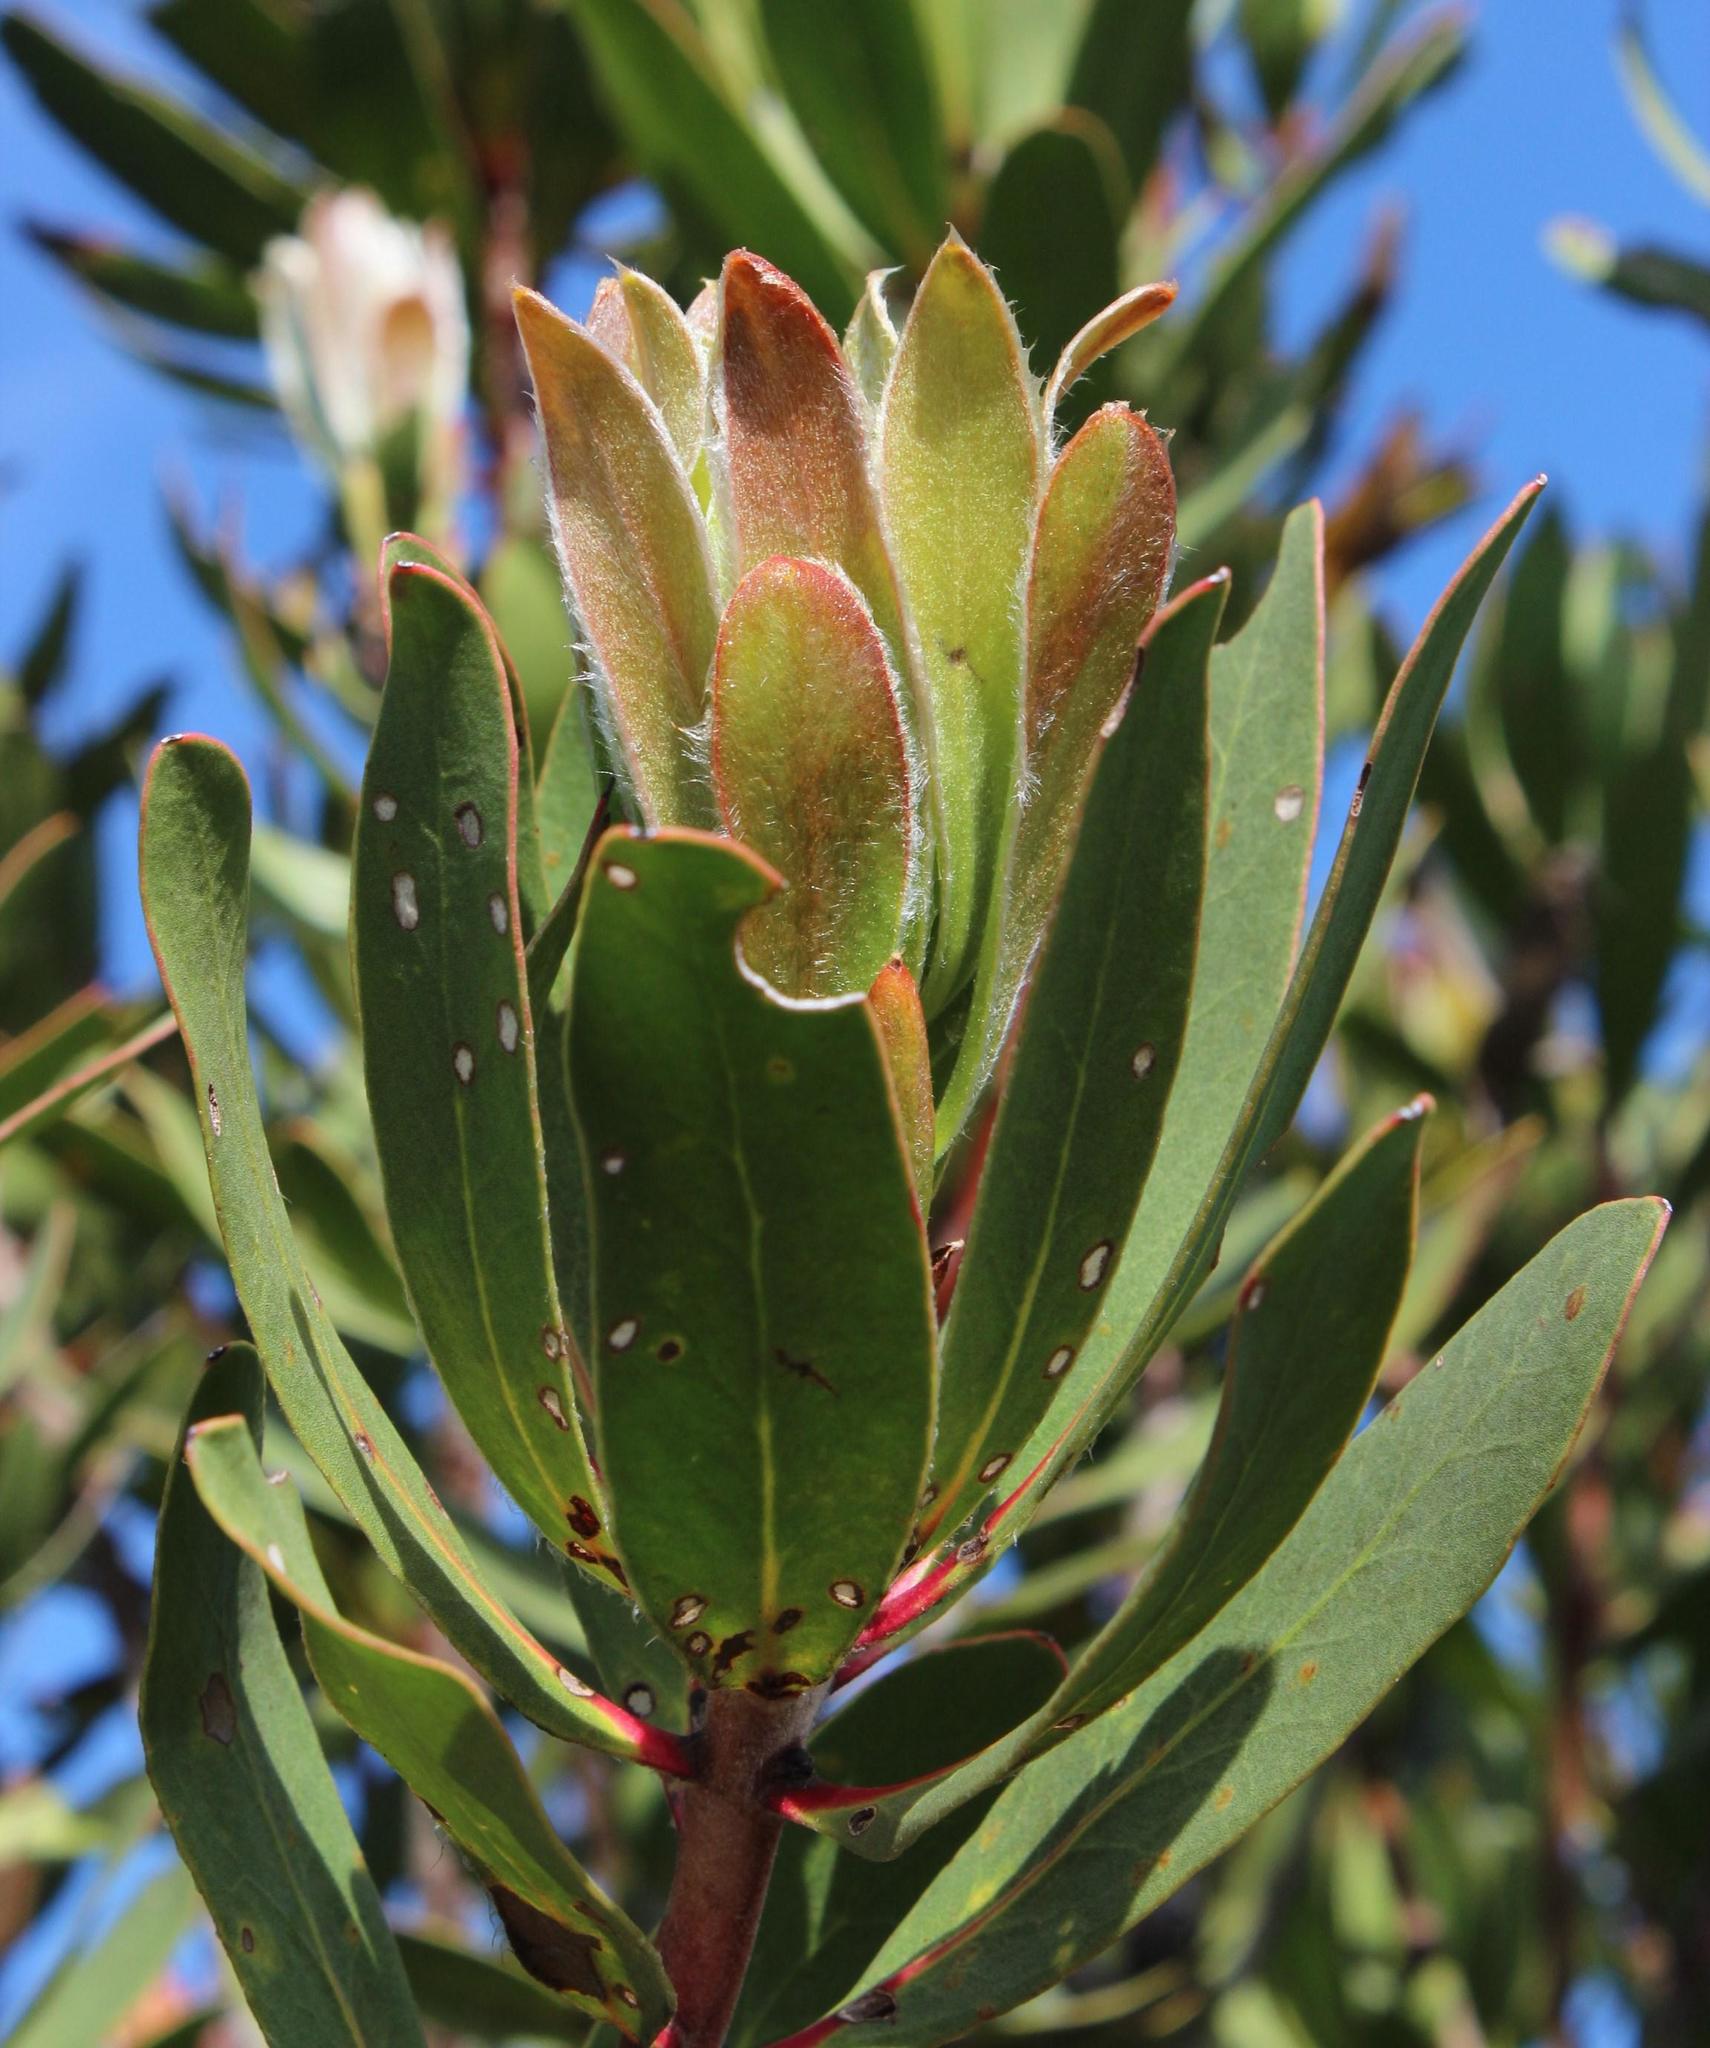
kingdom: Plantae
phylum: Tracheophyta
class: Magnoliopsida
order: Proteales
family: Proteaceae
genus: Protea
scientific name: Protea obtusifolia
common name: Bredasdorp sugarbush
